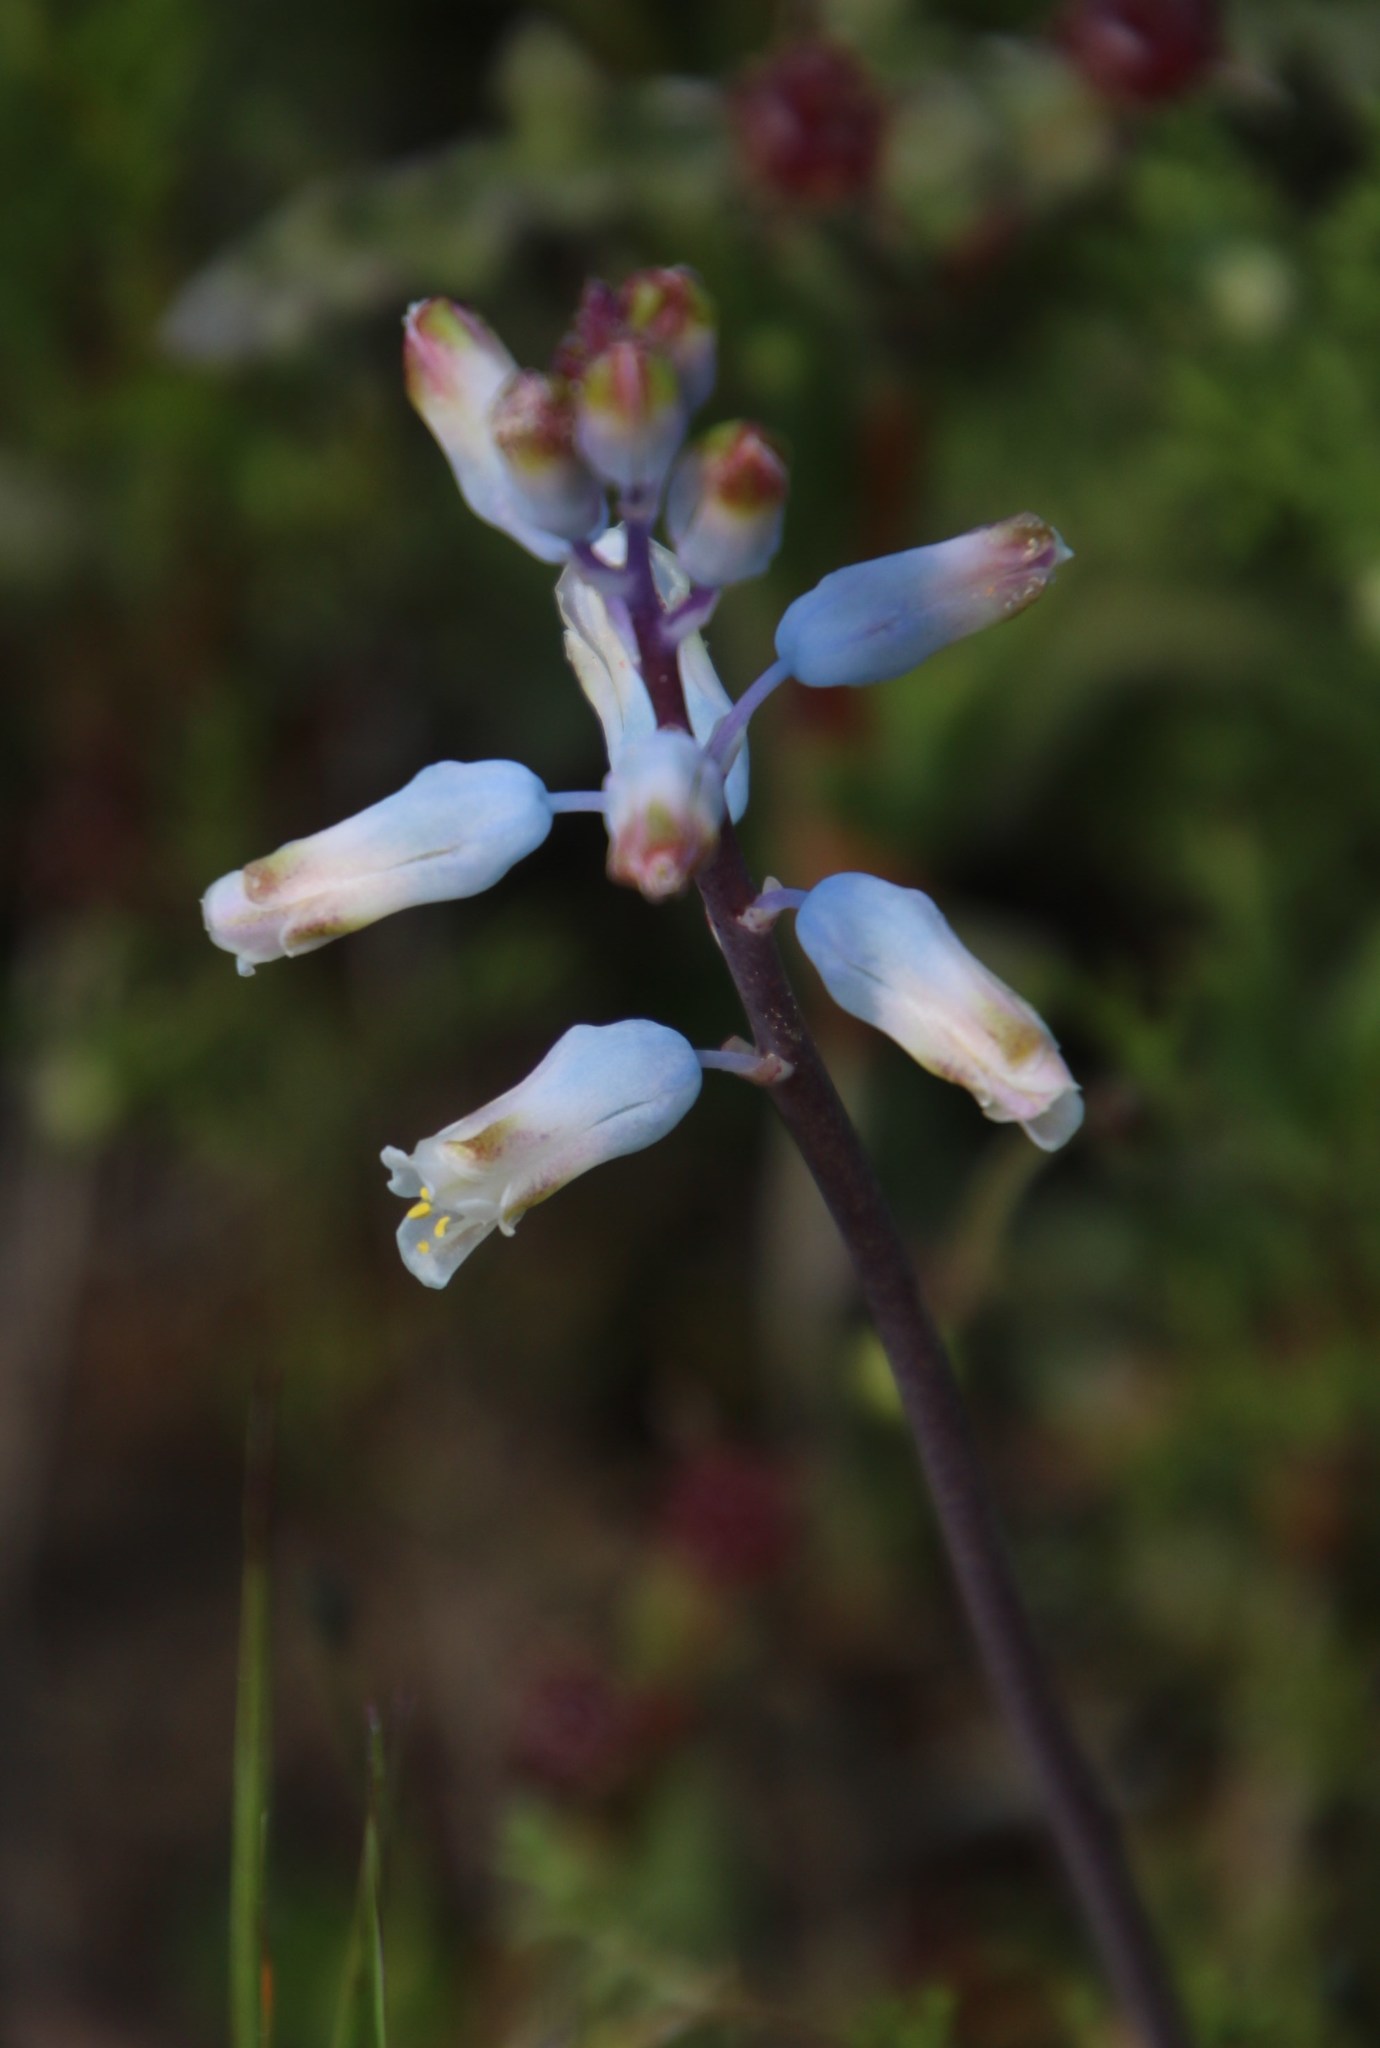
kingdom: Plantae
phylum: Tracheophyta
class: Liliopsida
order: Asparagales
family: Asparagaceae
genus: Lachenalia
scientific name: Lachenalia unifolia
